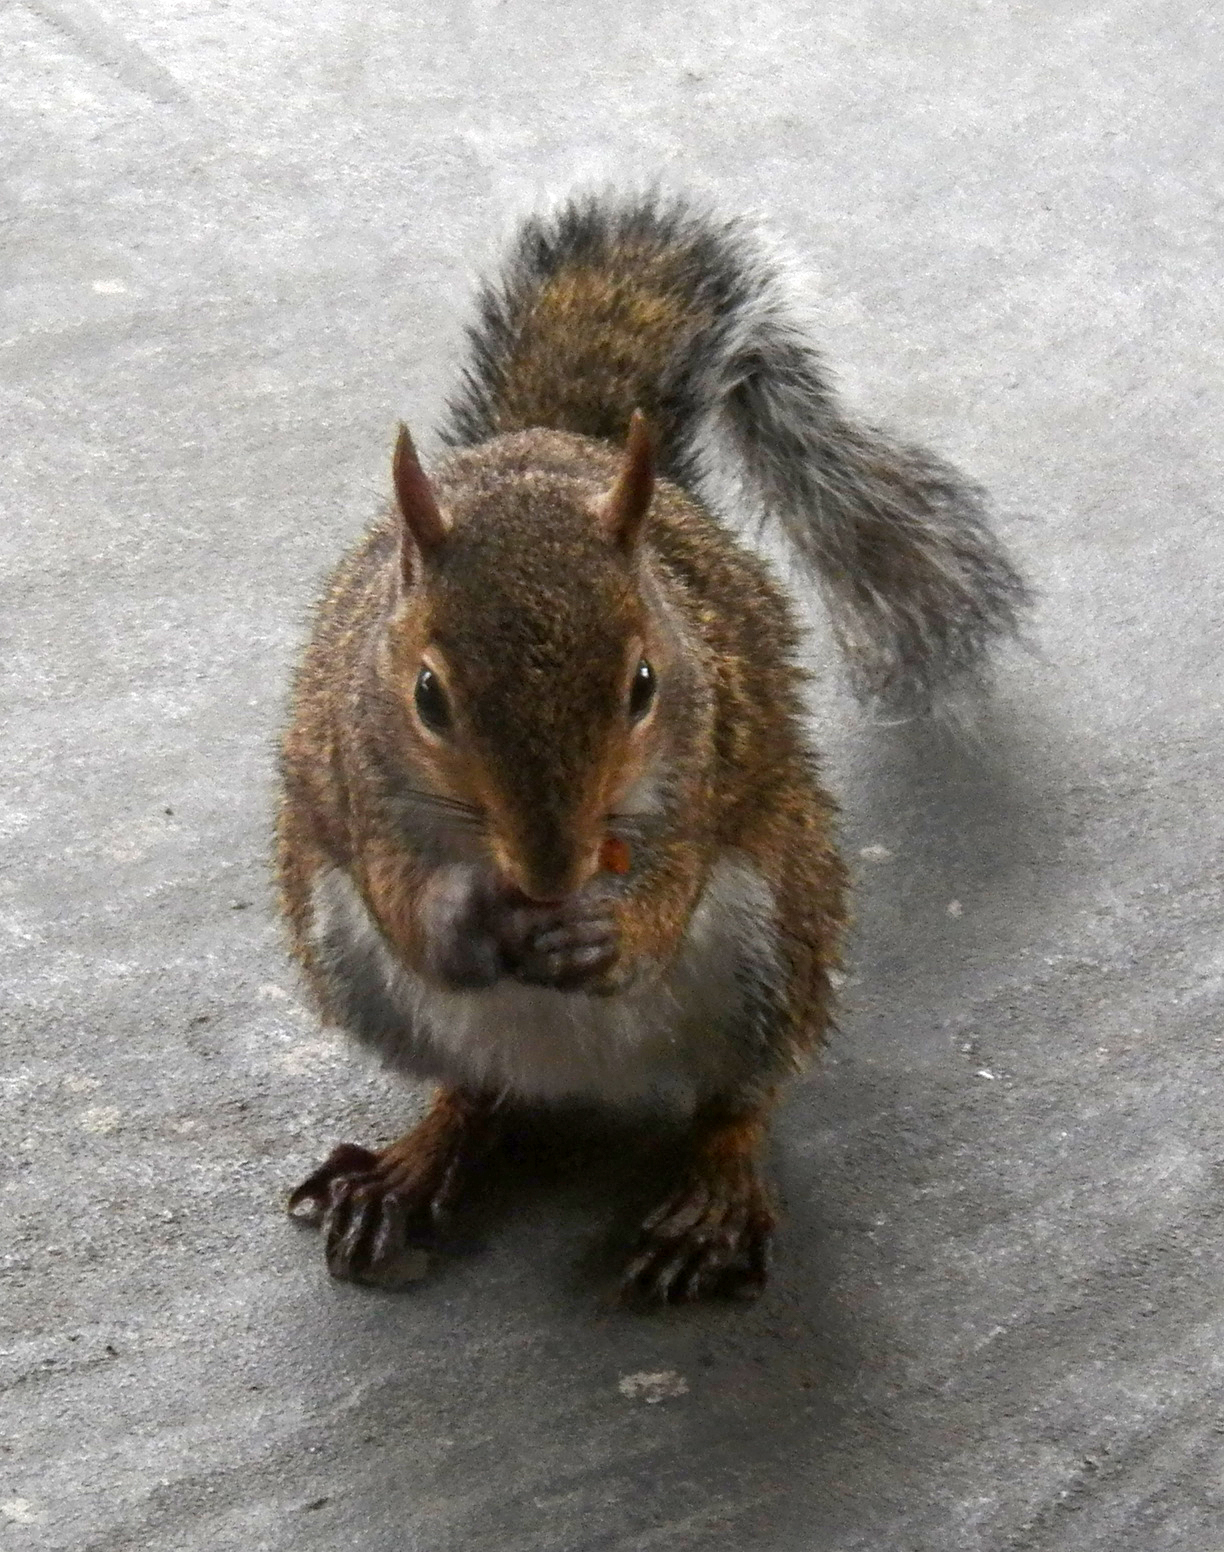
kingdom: Animalia
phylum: Chordata
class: Mammalia
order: Rodentia
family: Sciuridae
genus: Sciurus
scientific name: Sciurus carolinensis
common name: Eastern gray squirrel
